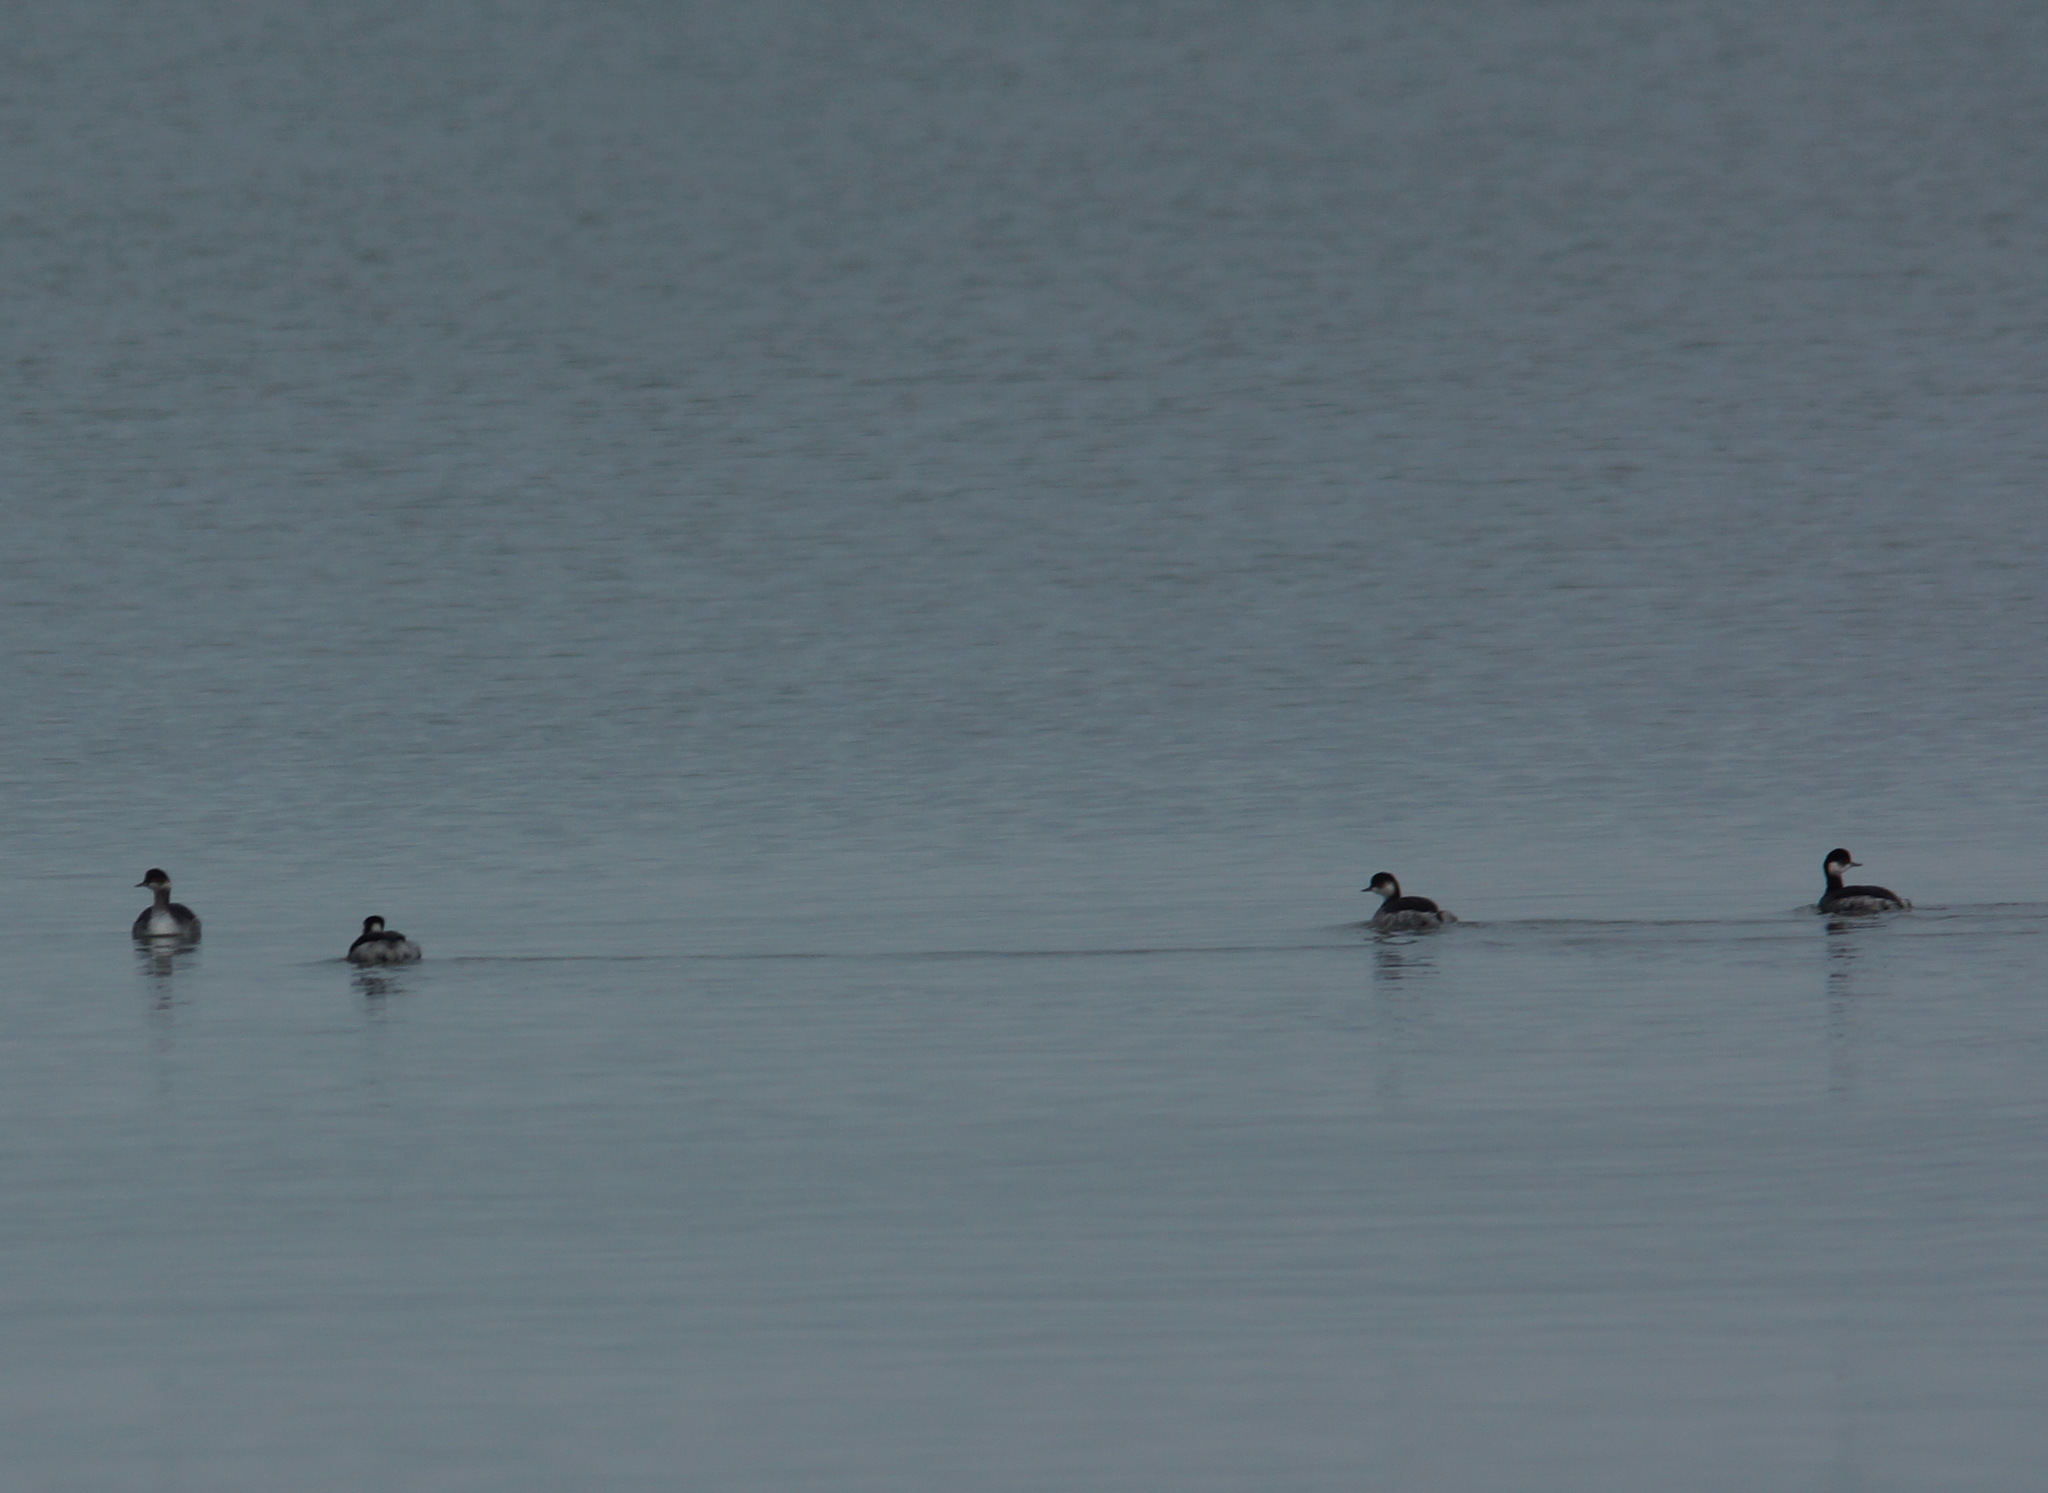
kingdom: Animalia
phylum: Chordata
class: Aves
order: Podicipediformes
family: Podicipedidae
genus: Podiceps
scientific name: Podiceps nigricollis
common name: Black-necked grebe
